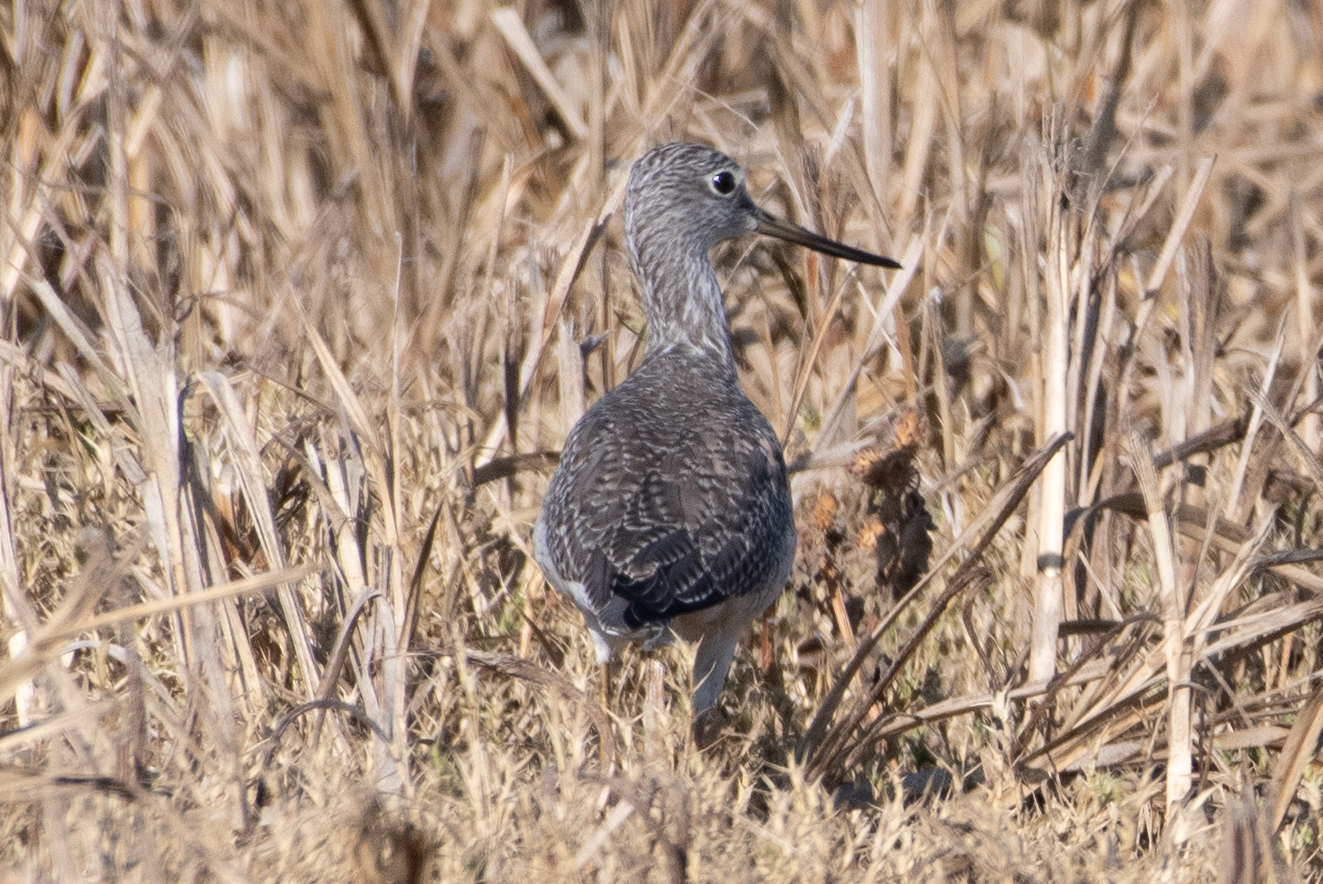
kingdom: Animalia
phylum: Chordata
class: Aves
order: Charadriiformes
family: Scolopacidae
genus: Tringa
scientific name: Tringa melanoleuca
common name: Greater yellowlegs
